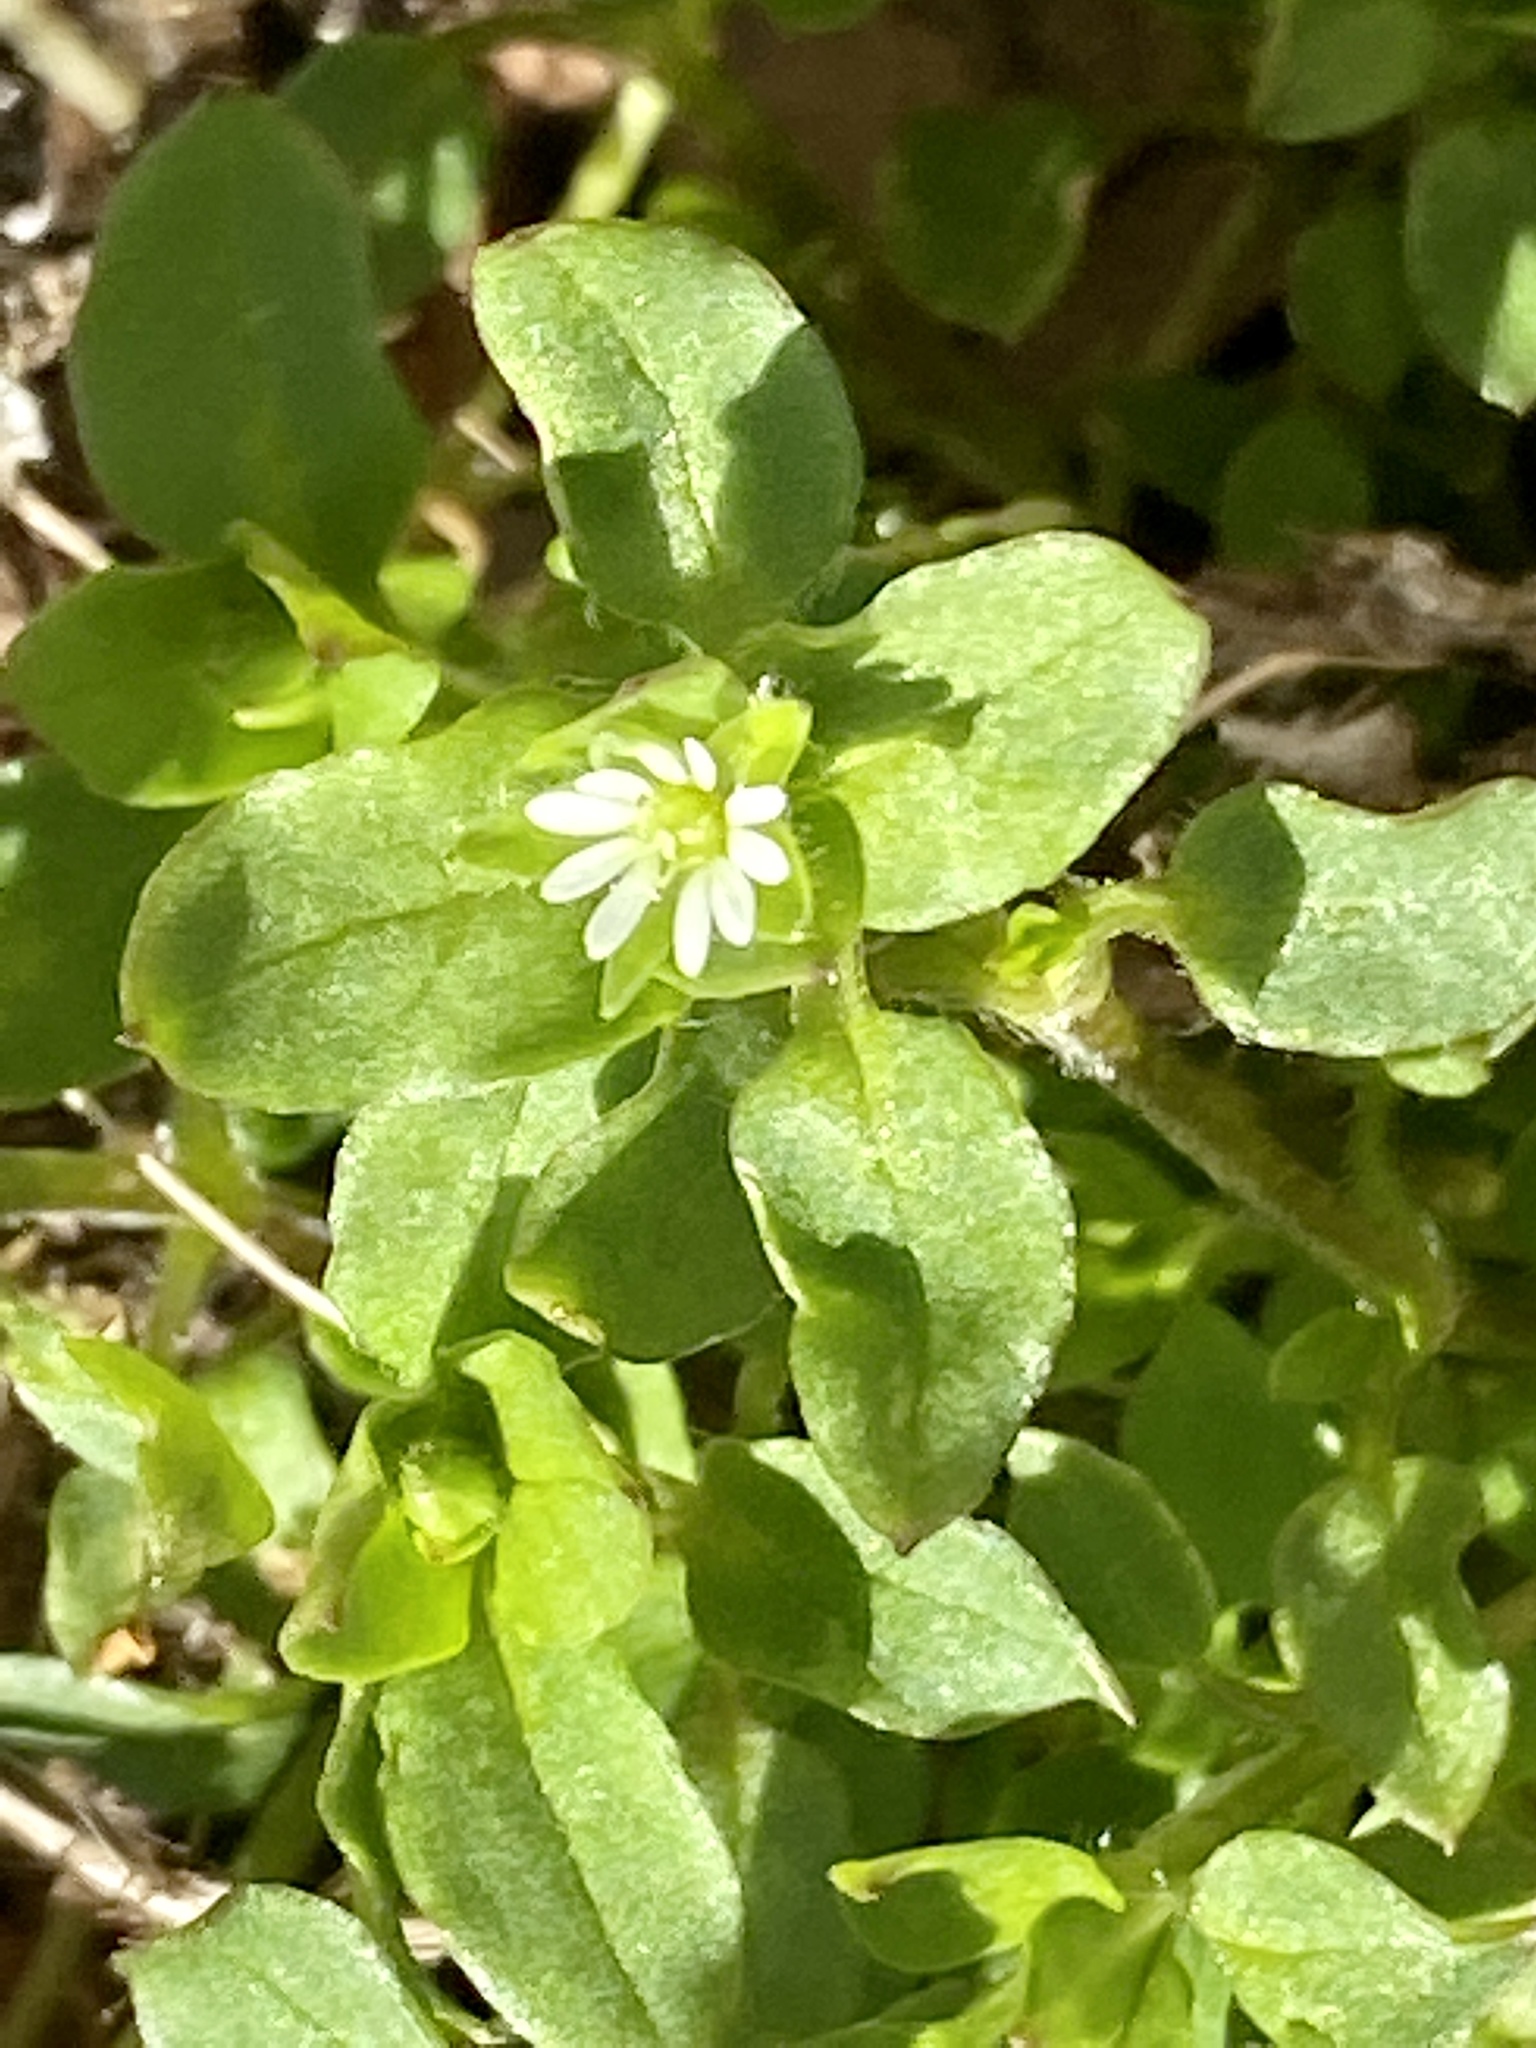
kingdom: Plantae
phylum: Tracheophyta
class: Magnoliopsida
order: Caryophyllales
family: Caryophyllaceae
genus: Stellaria
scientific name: Stellaria media
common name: Common chickweed
